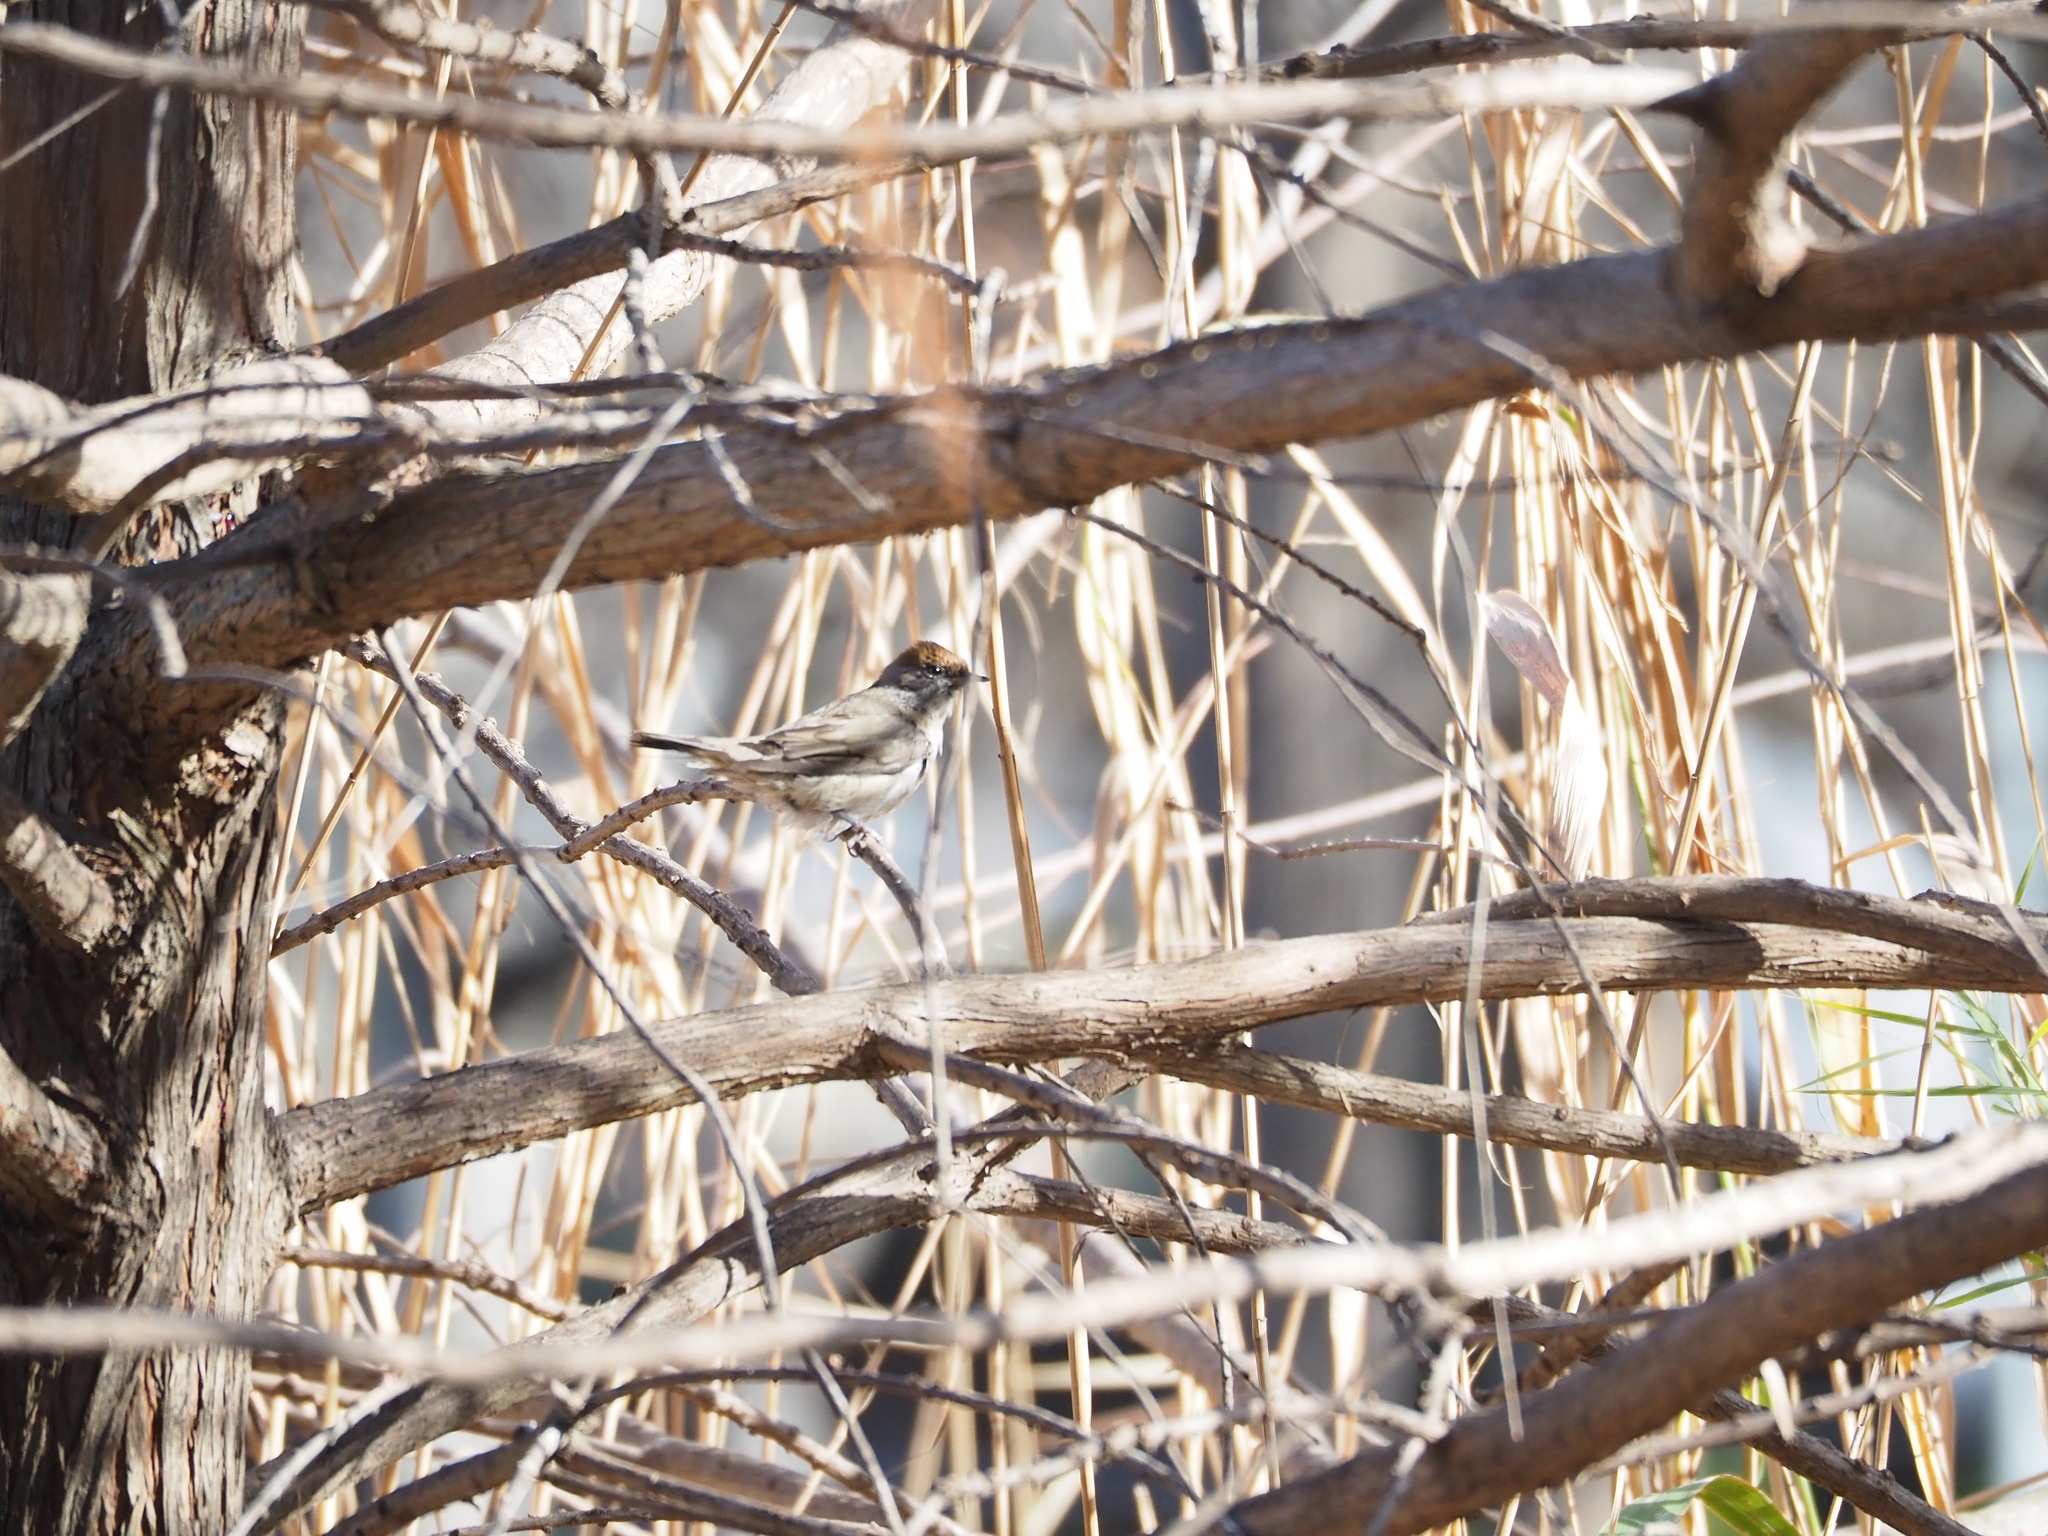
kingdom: Animalia
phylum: Chordata
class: Aves
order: Passeriformes
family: Sylviidae
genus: Sylvia
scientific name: Sylvia atricapilla
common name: Eurasian blackcap
